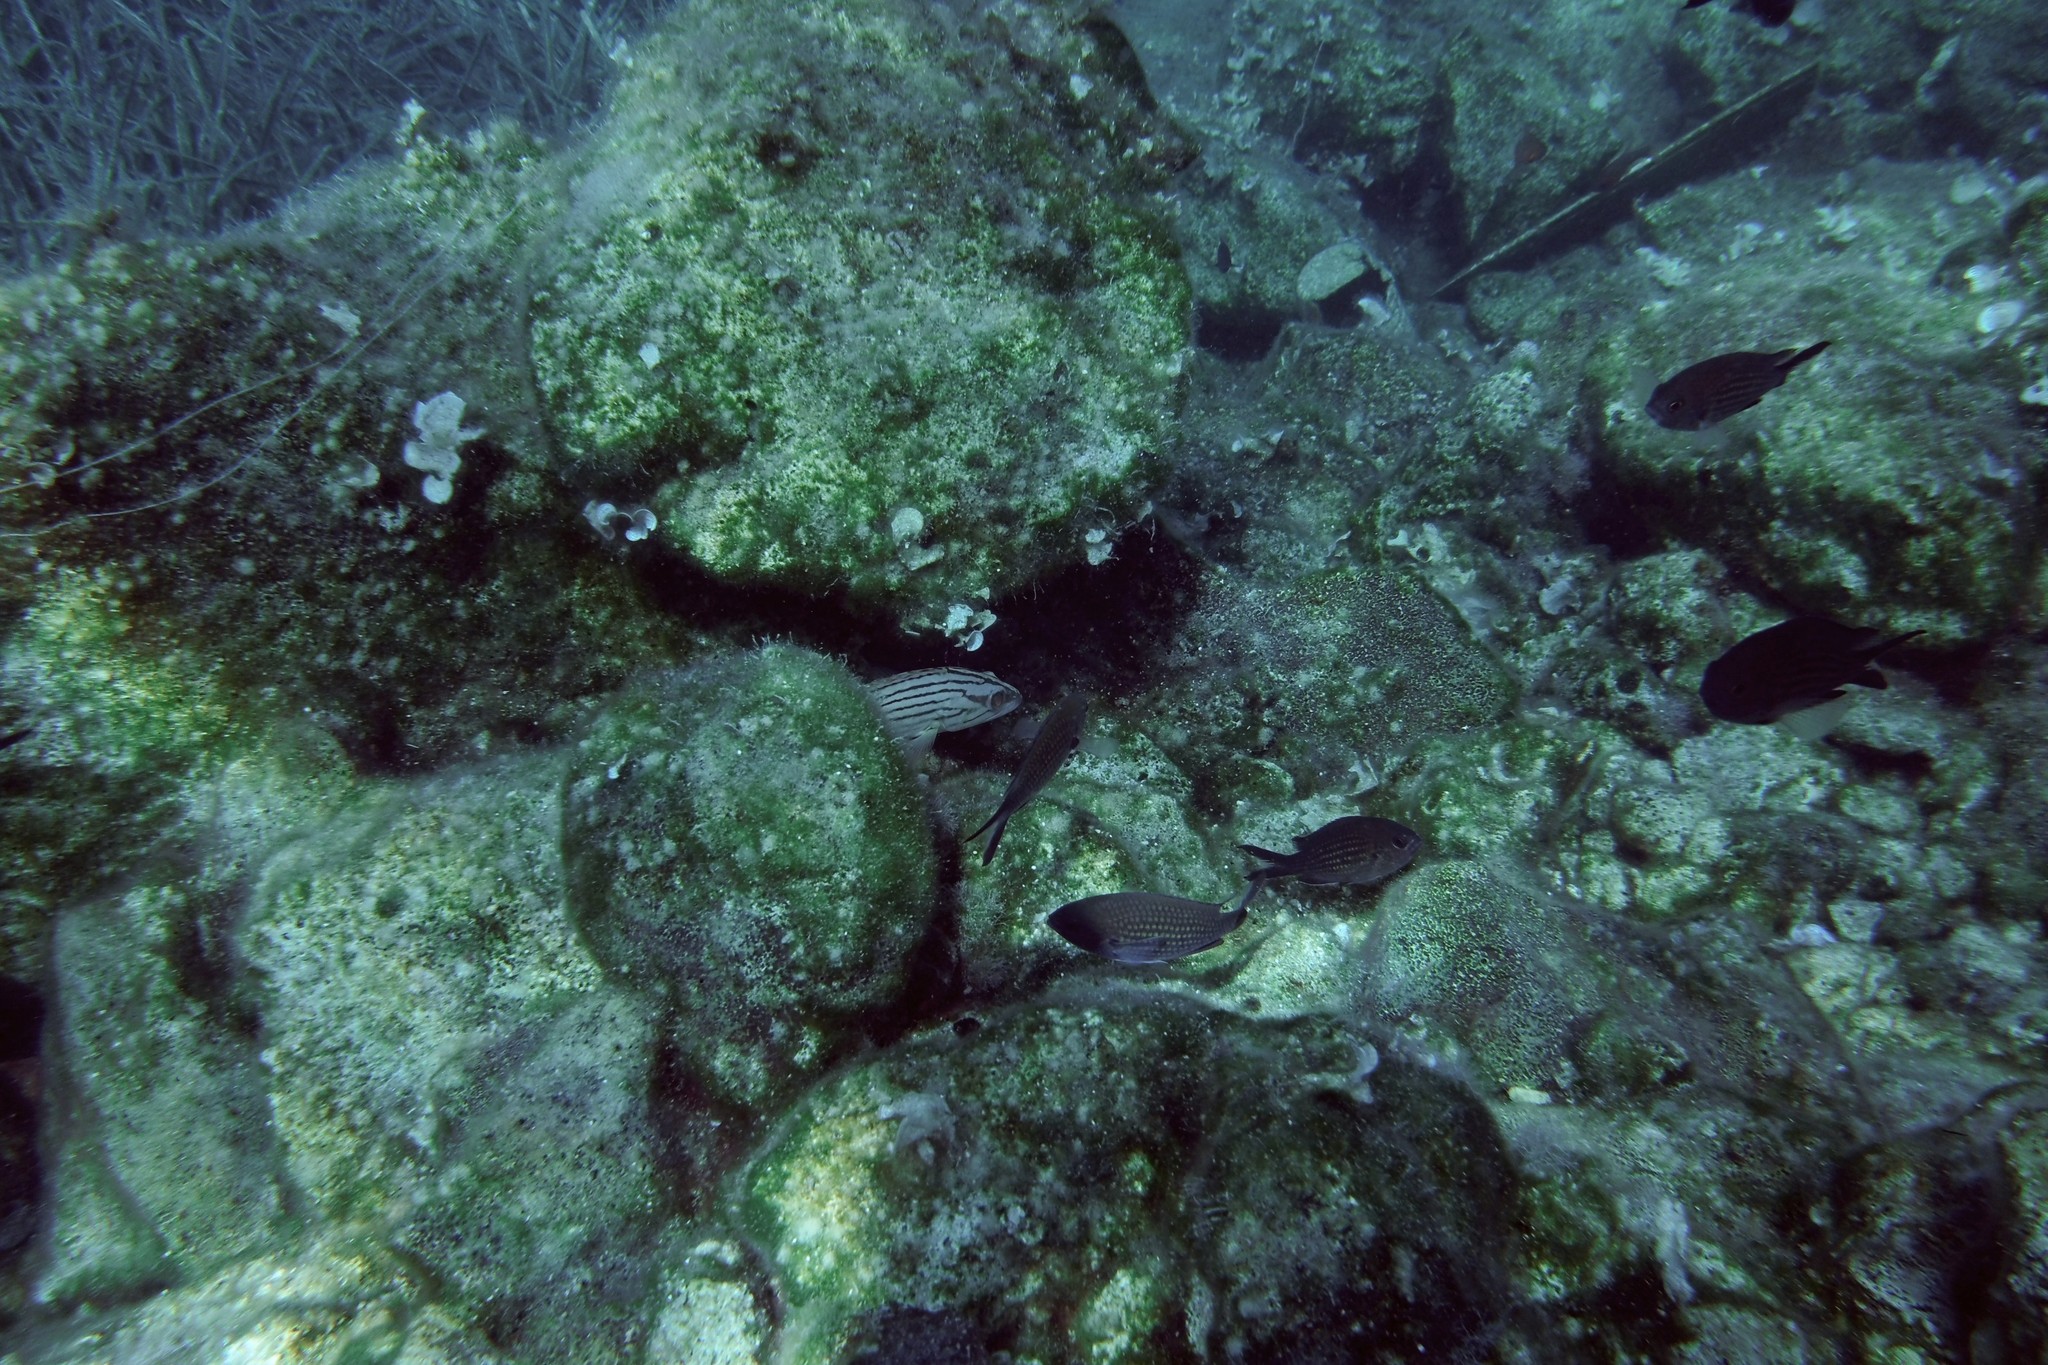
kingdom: Animalia
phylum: Chordata
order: Perciformes
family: Serranidae
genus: Epinephelus
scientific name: Epinephelus costae
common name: Goldblotch grouper
